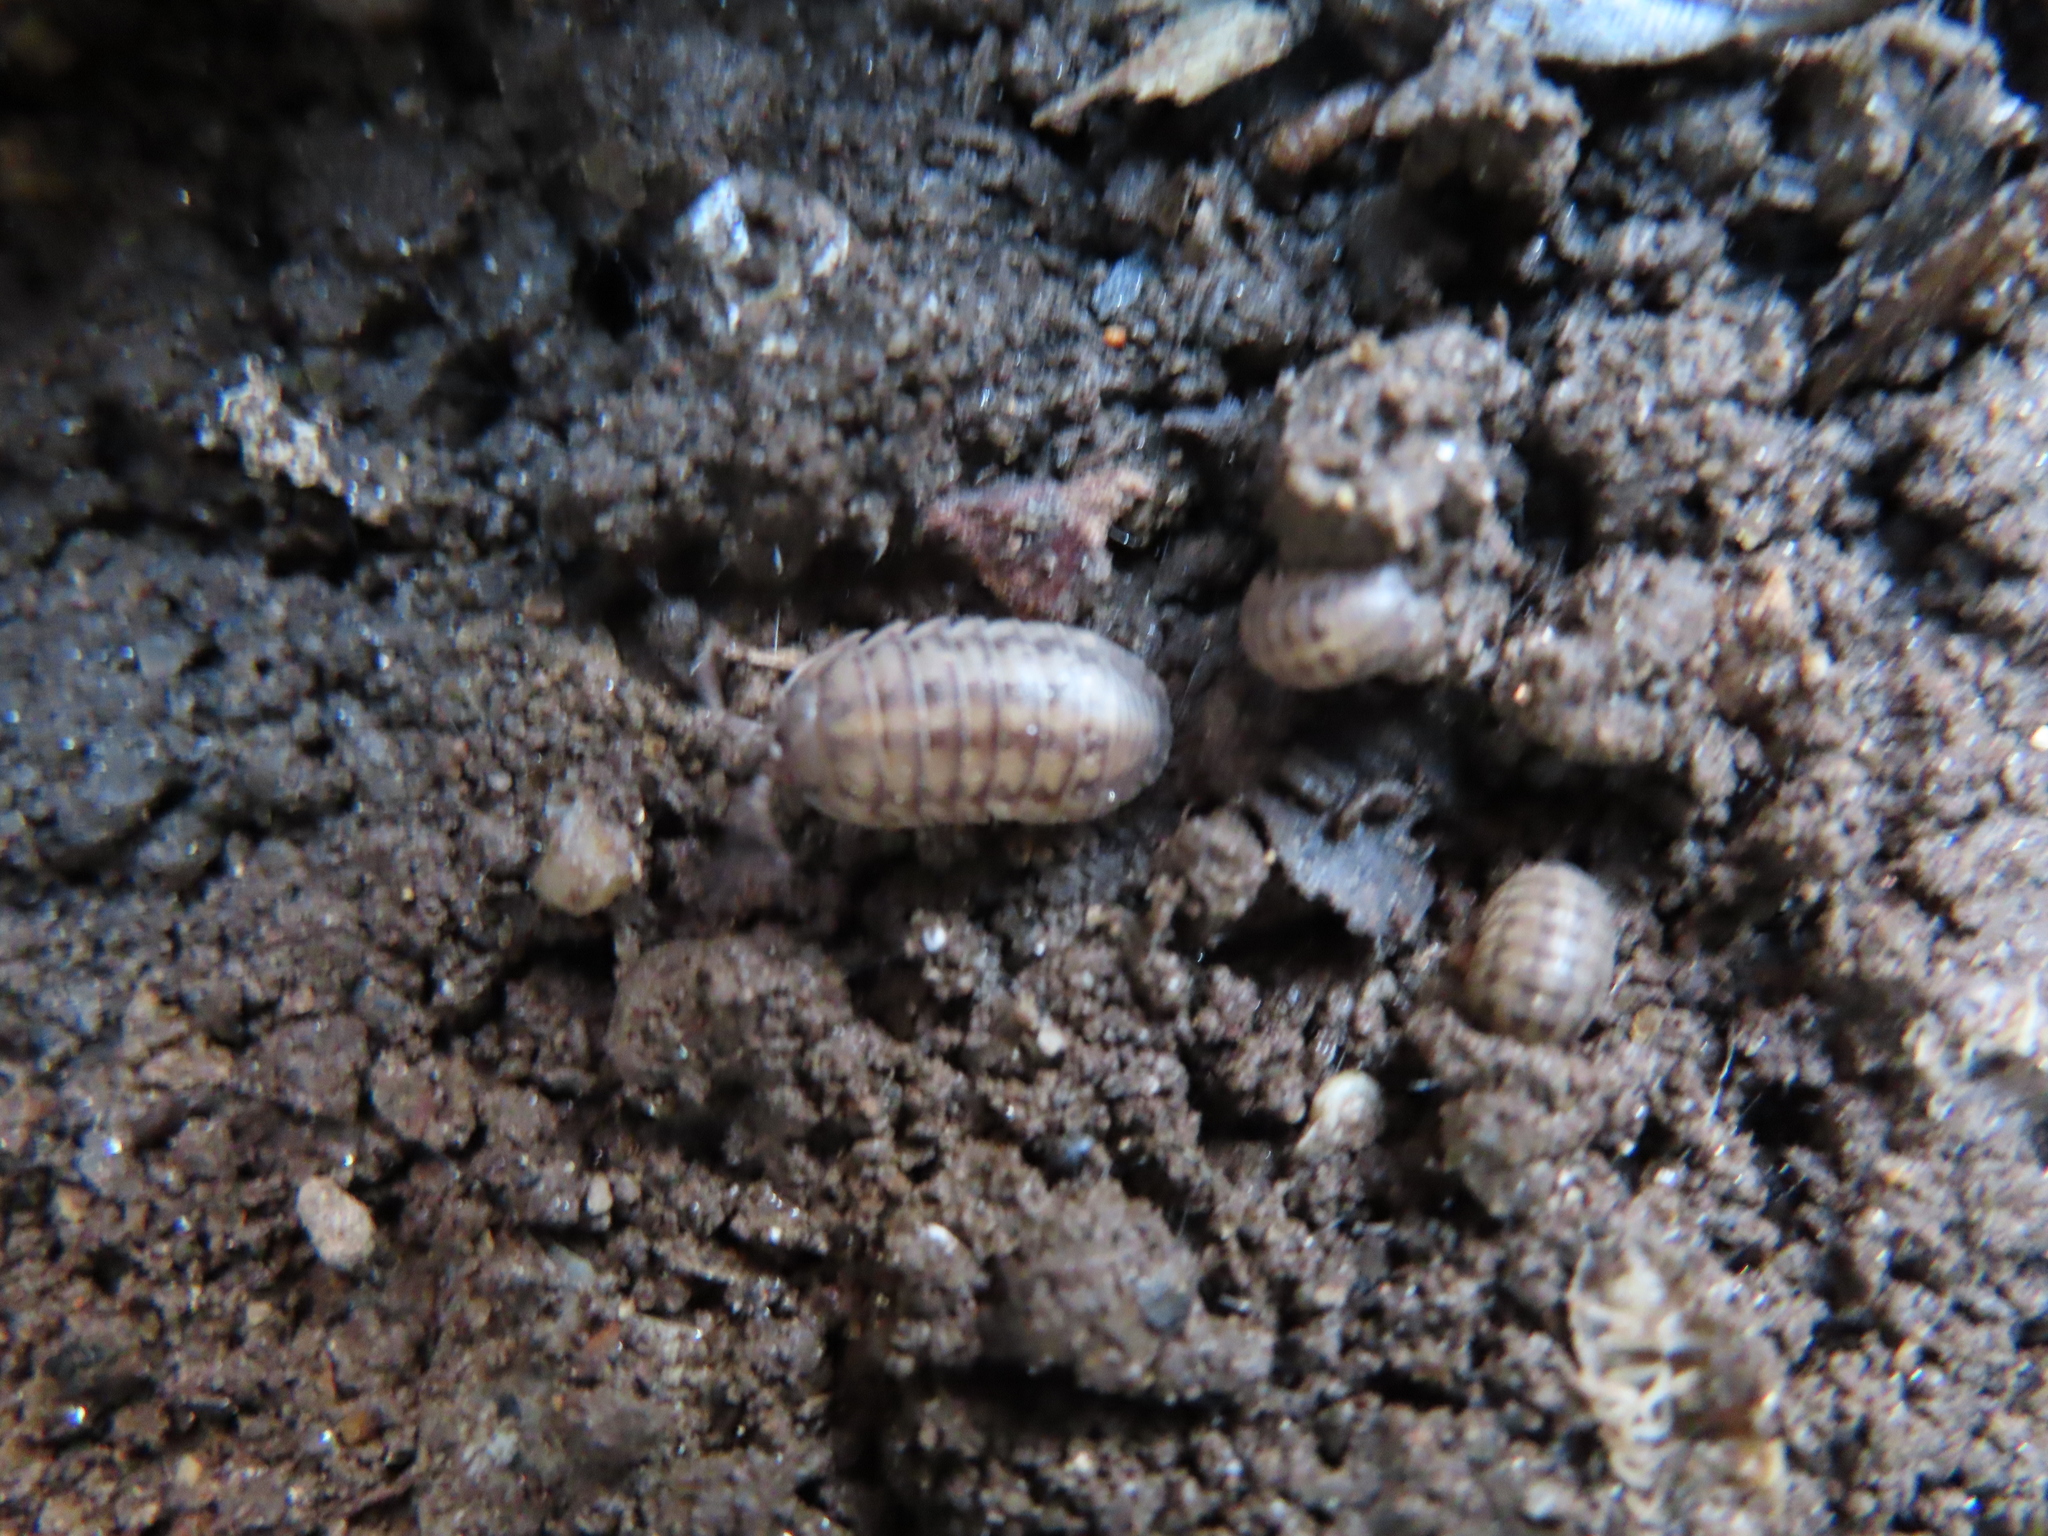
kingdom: Animalia
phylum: Arthropoda
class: Malacostraca
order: Isopoda
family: Armadillidiidae
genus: Armadillidium
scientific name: Armadillidium nasatum
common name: Isopod
